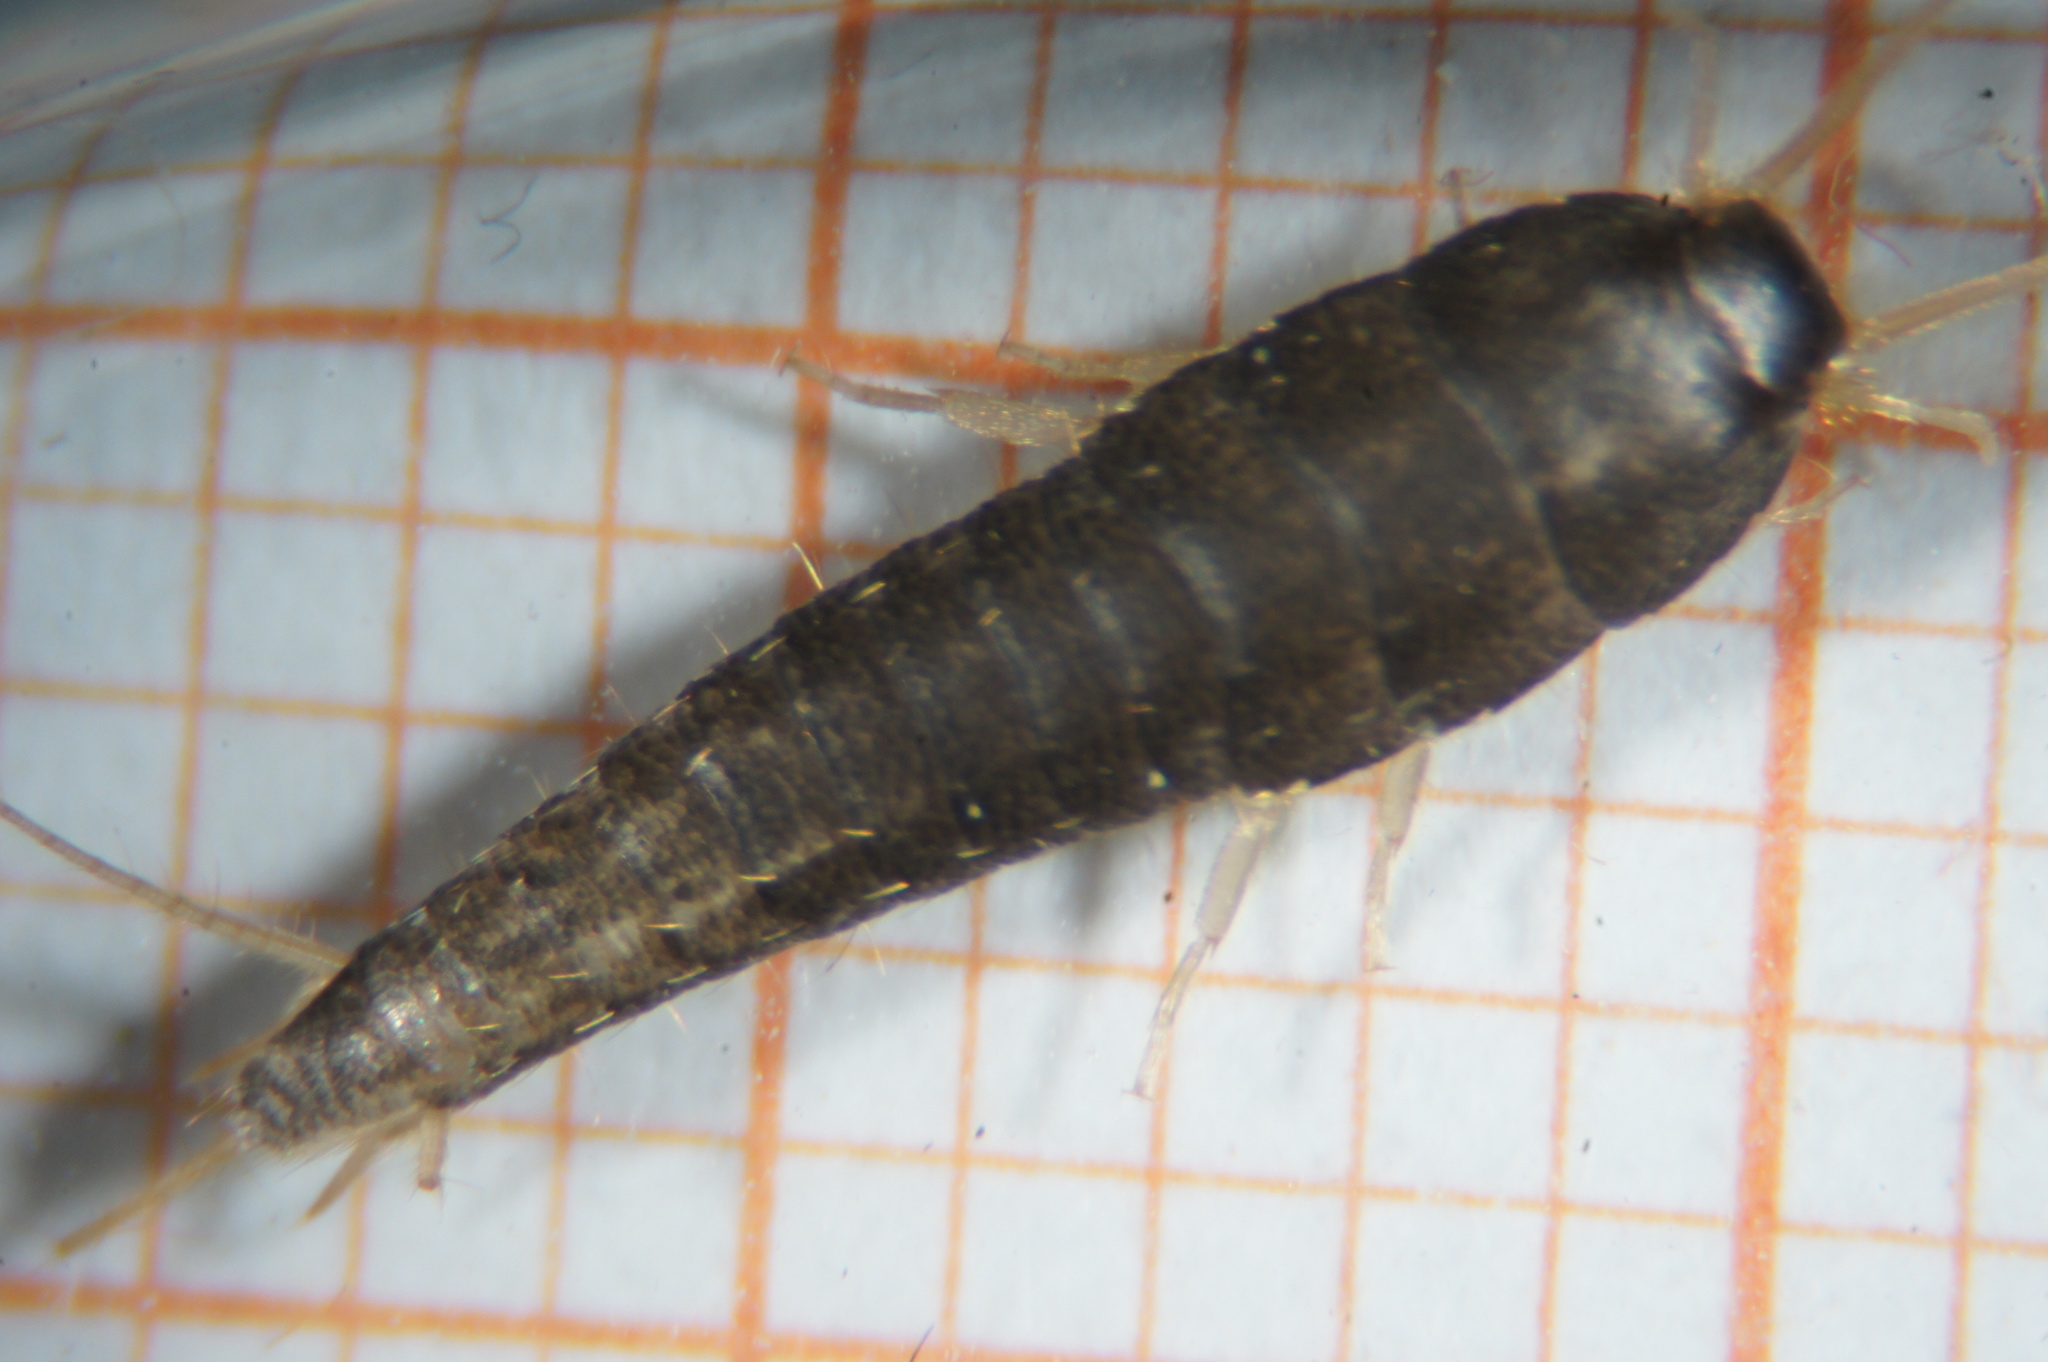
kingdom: Animalia
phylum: Arthropoda
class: Insecta
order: Zygentoma
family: Lepismatidae
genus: Lepisma
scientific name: Lepisma saccharinum
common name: Silverfish
